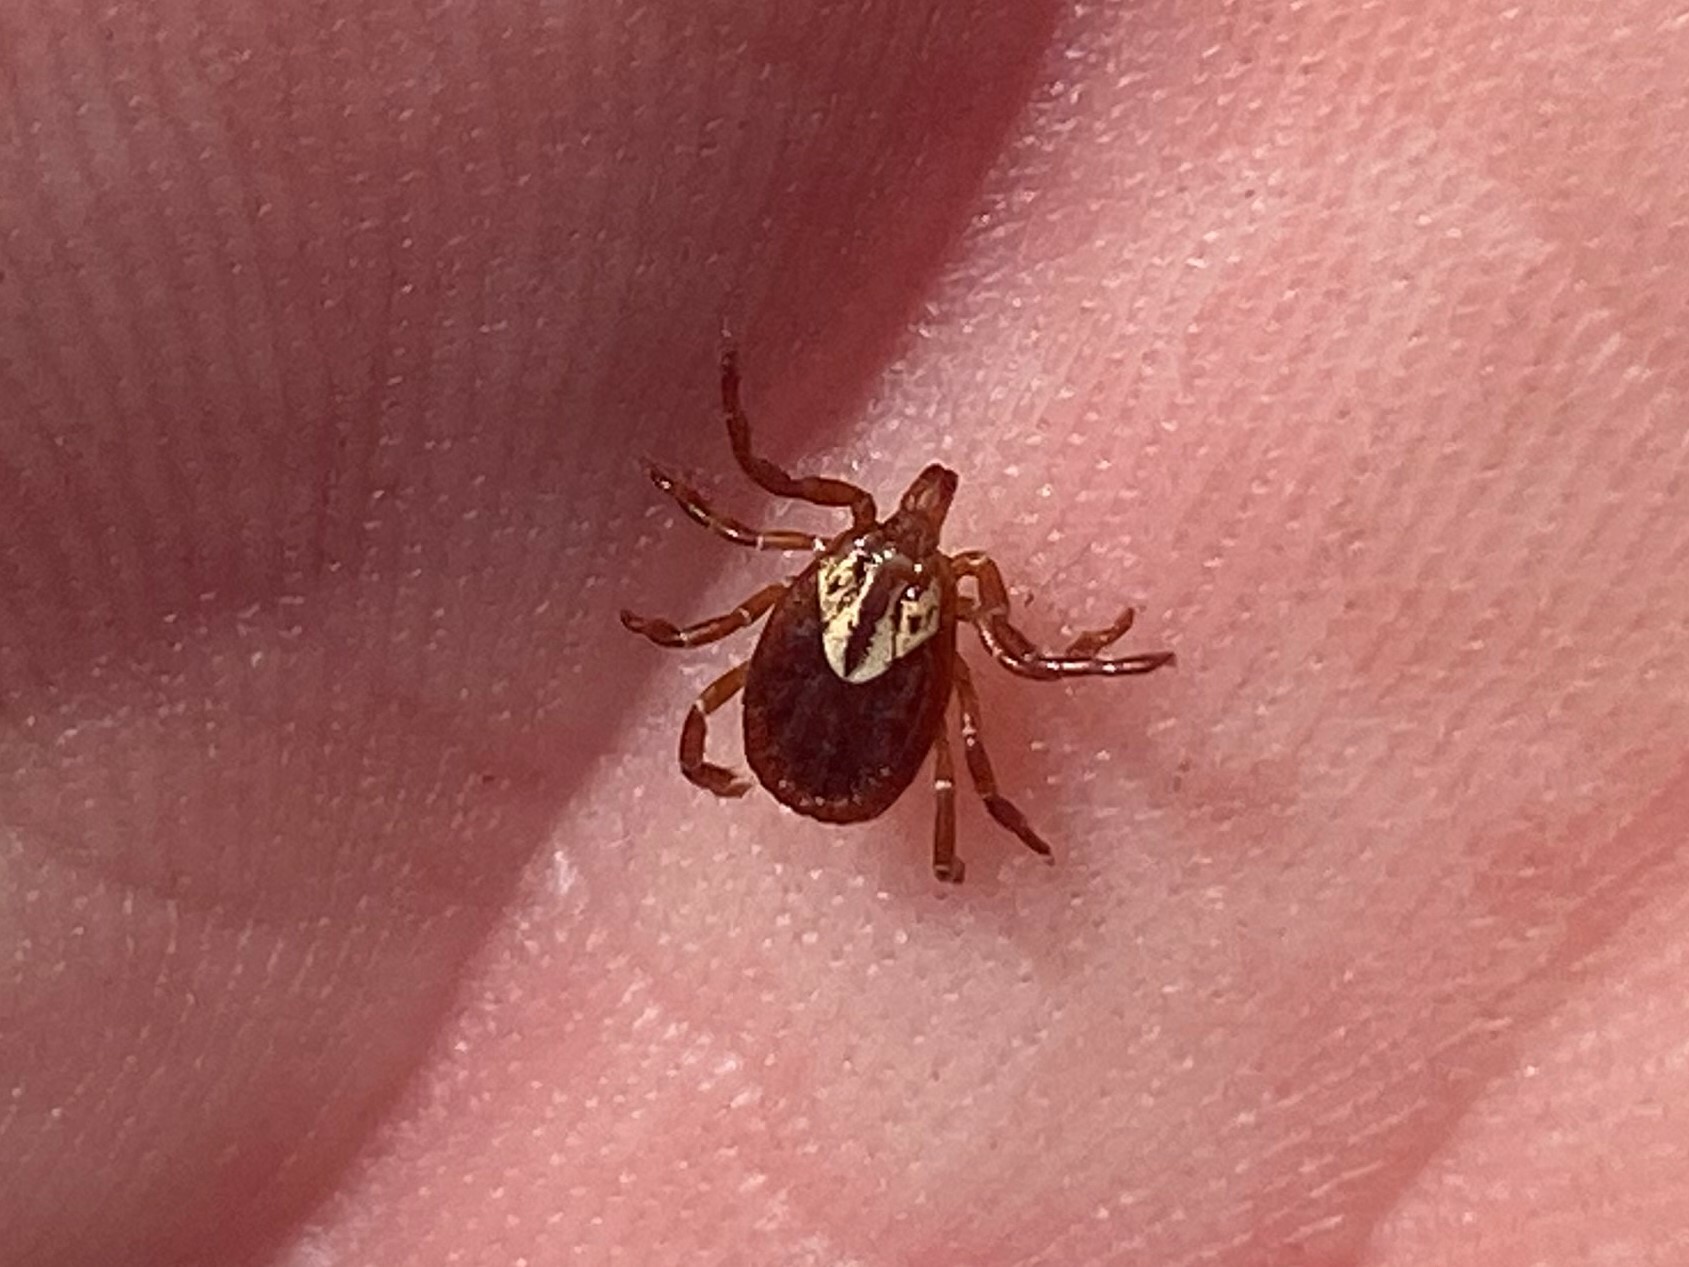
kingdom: Animalia
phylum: Arthropoda
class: Arachnida
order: Ixodida
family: Ixodidae
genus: Amblyomma
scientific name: Amblyomma maculatum
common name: Gulf coast tick
